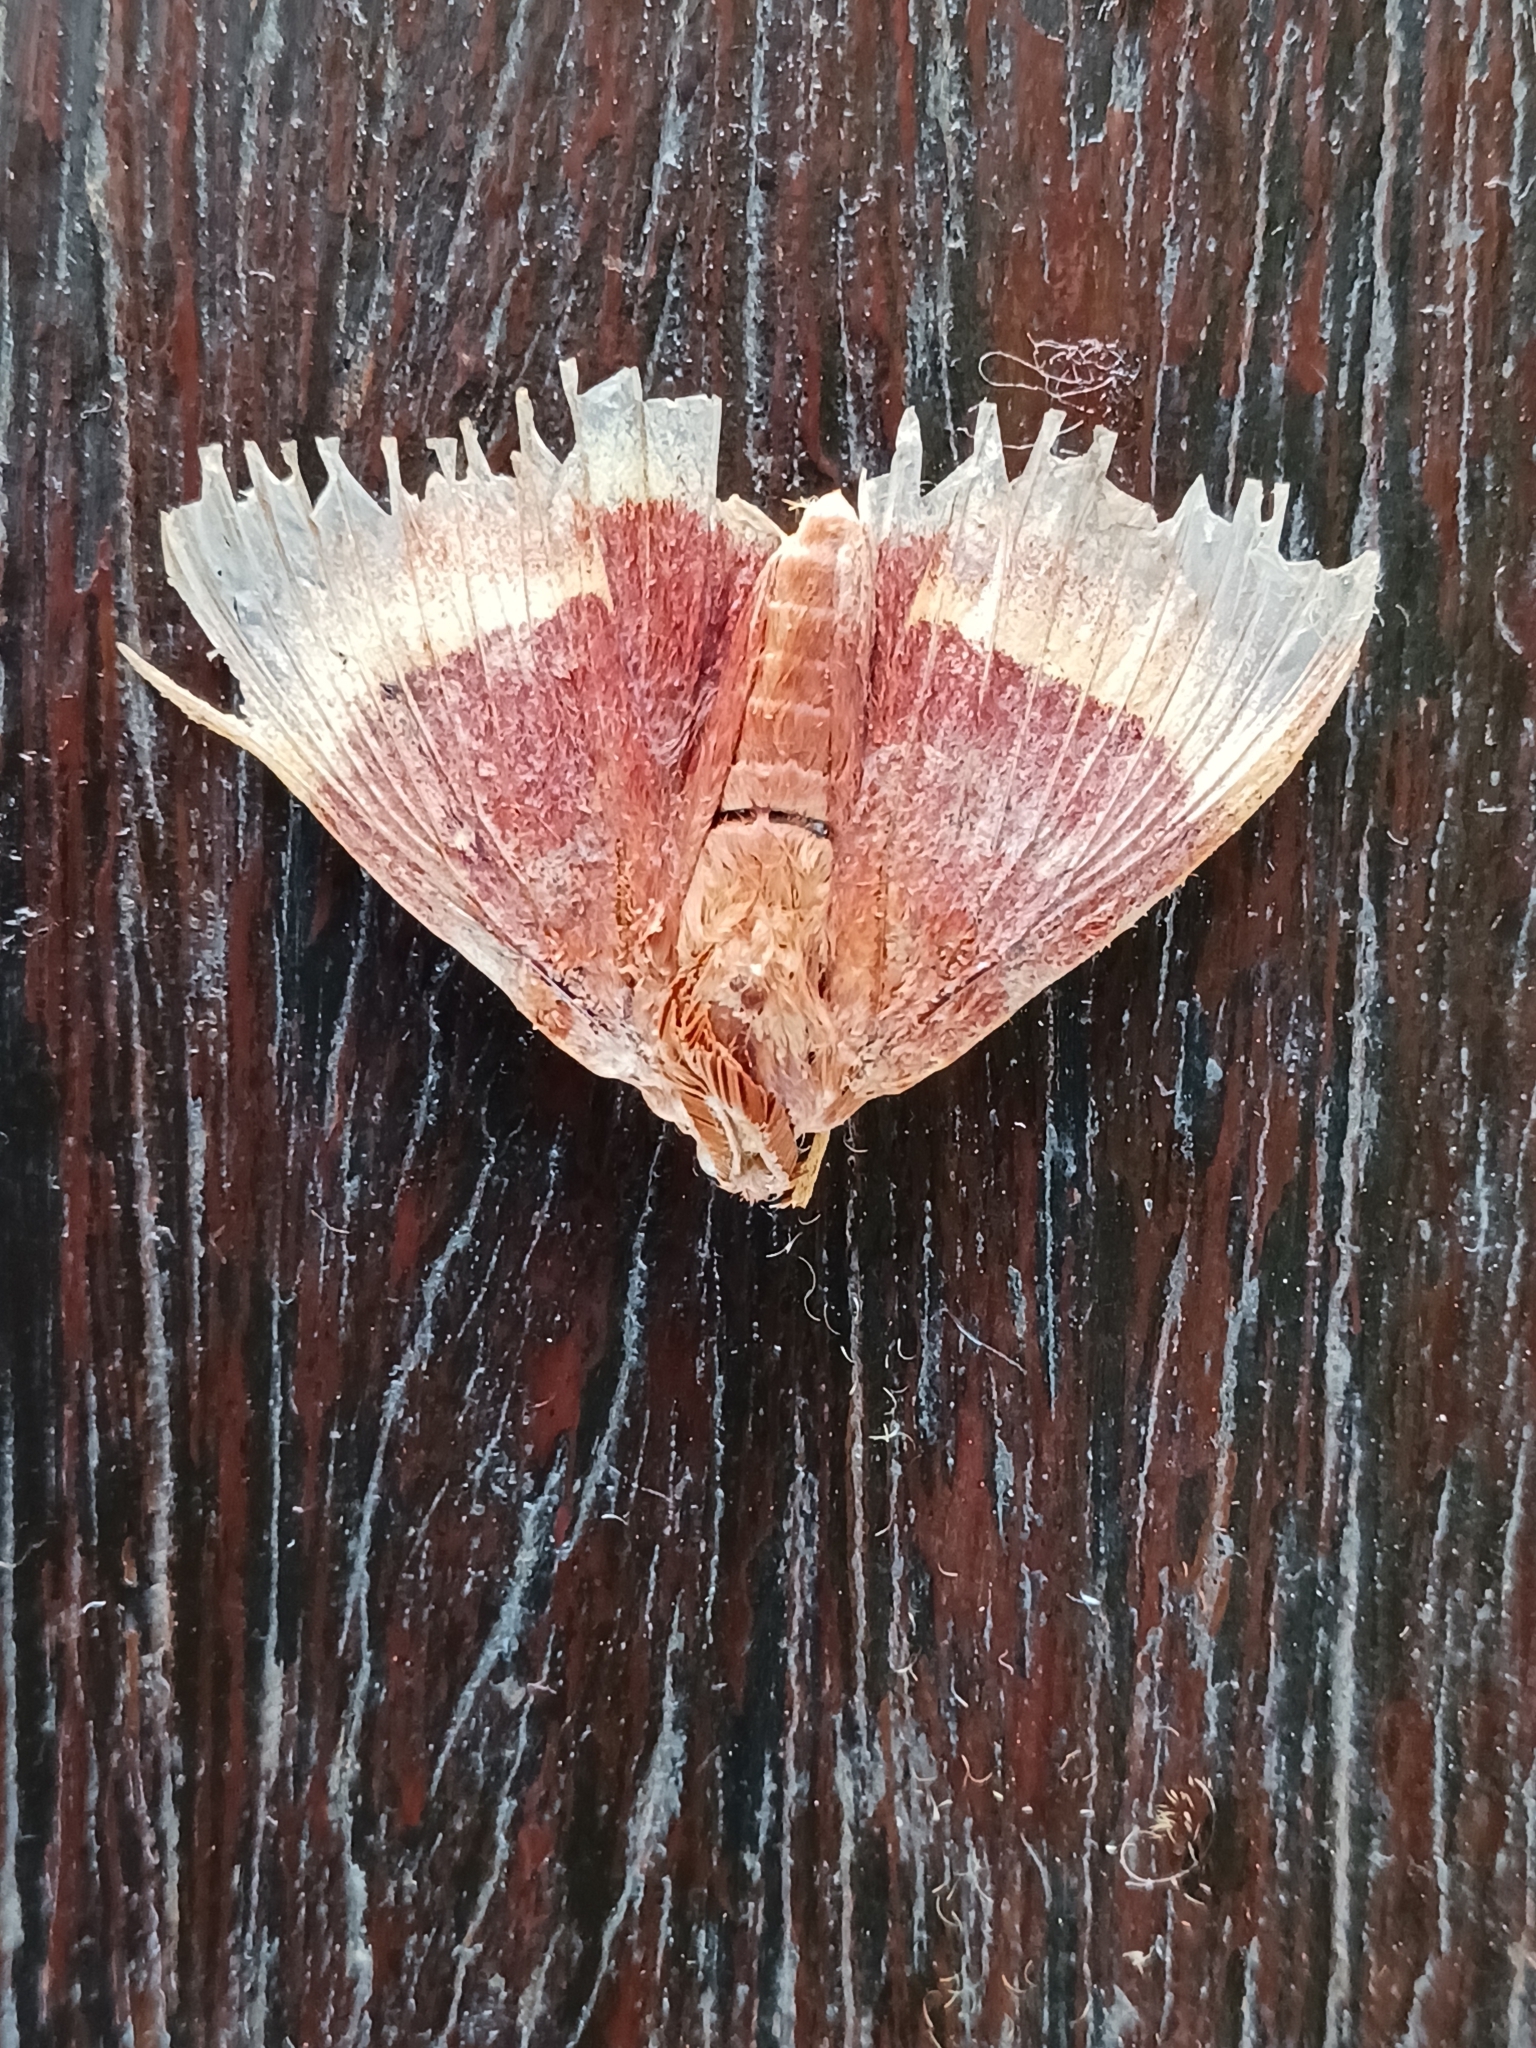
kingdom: Animalia
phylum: Arthropoda
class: Insecta
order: Lepidoptera
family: Lasiocampidae
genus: Lasiocampa
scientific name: Lasiocampa quercus
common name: Oak eggar
